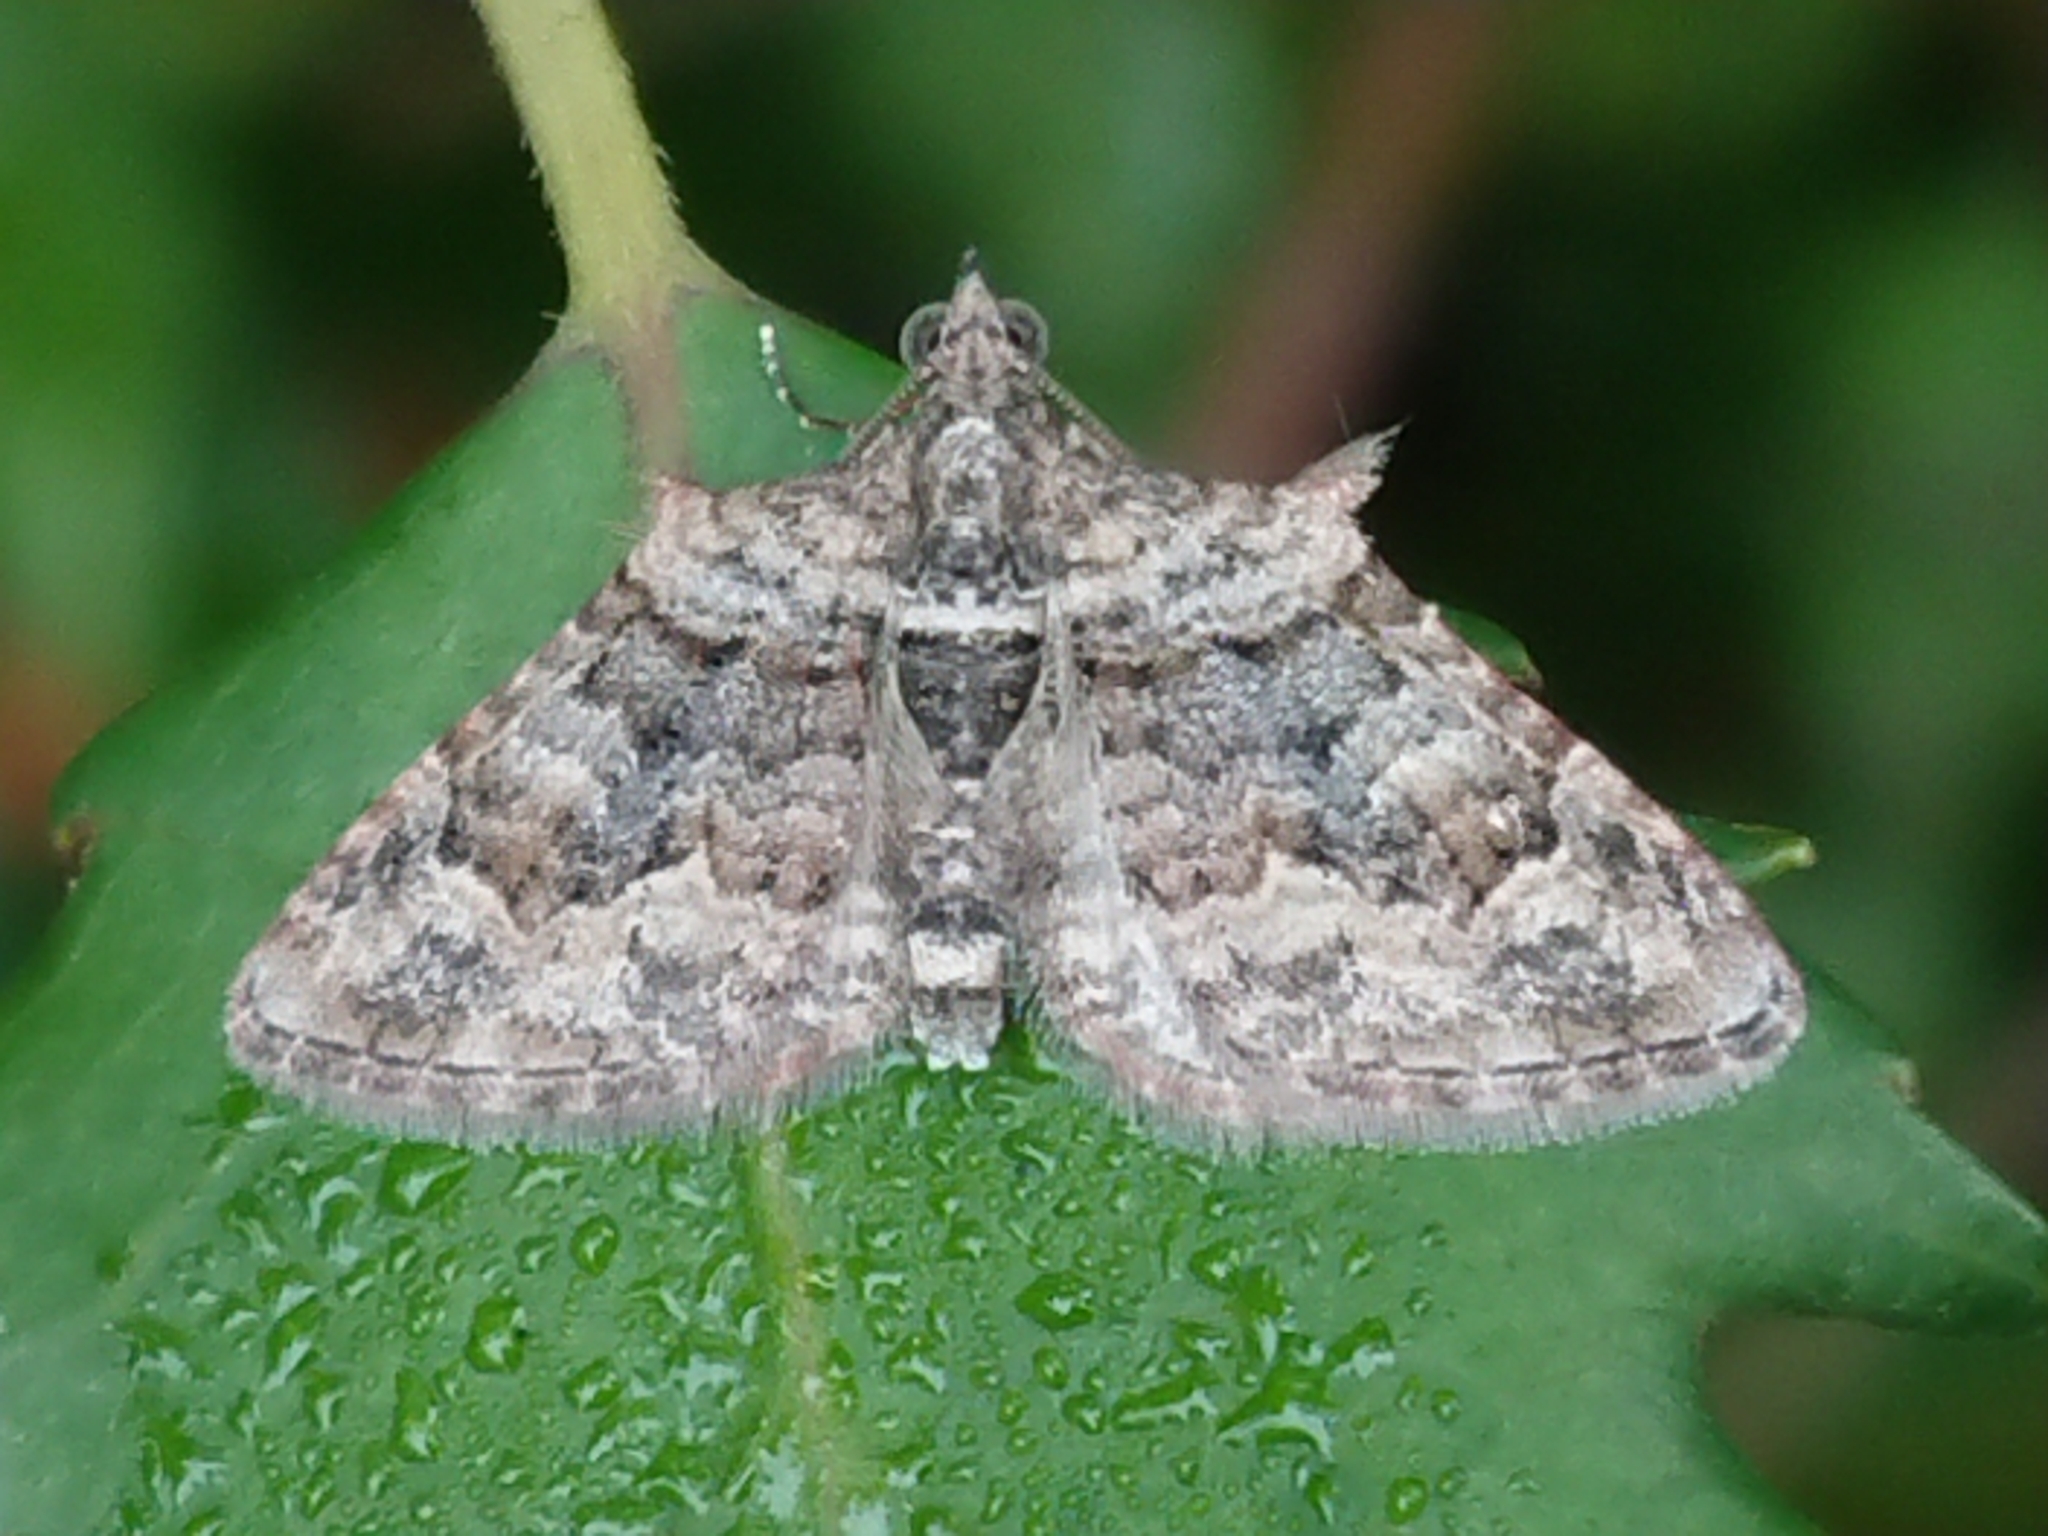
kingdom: Animalia
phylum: Arthropoda
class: Insecta
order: Lepidoptera
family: Geometridae
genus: Phrissogonus
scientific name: Phrissogonus laticostata
